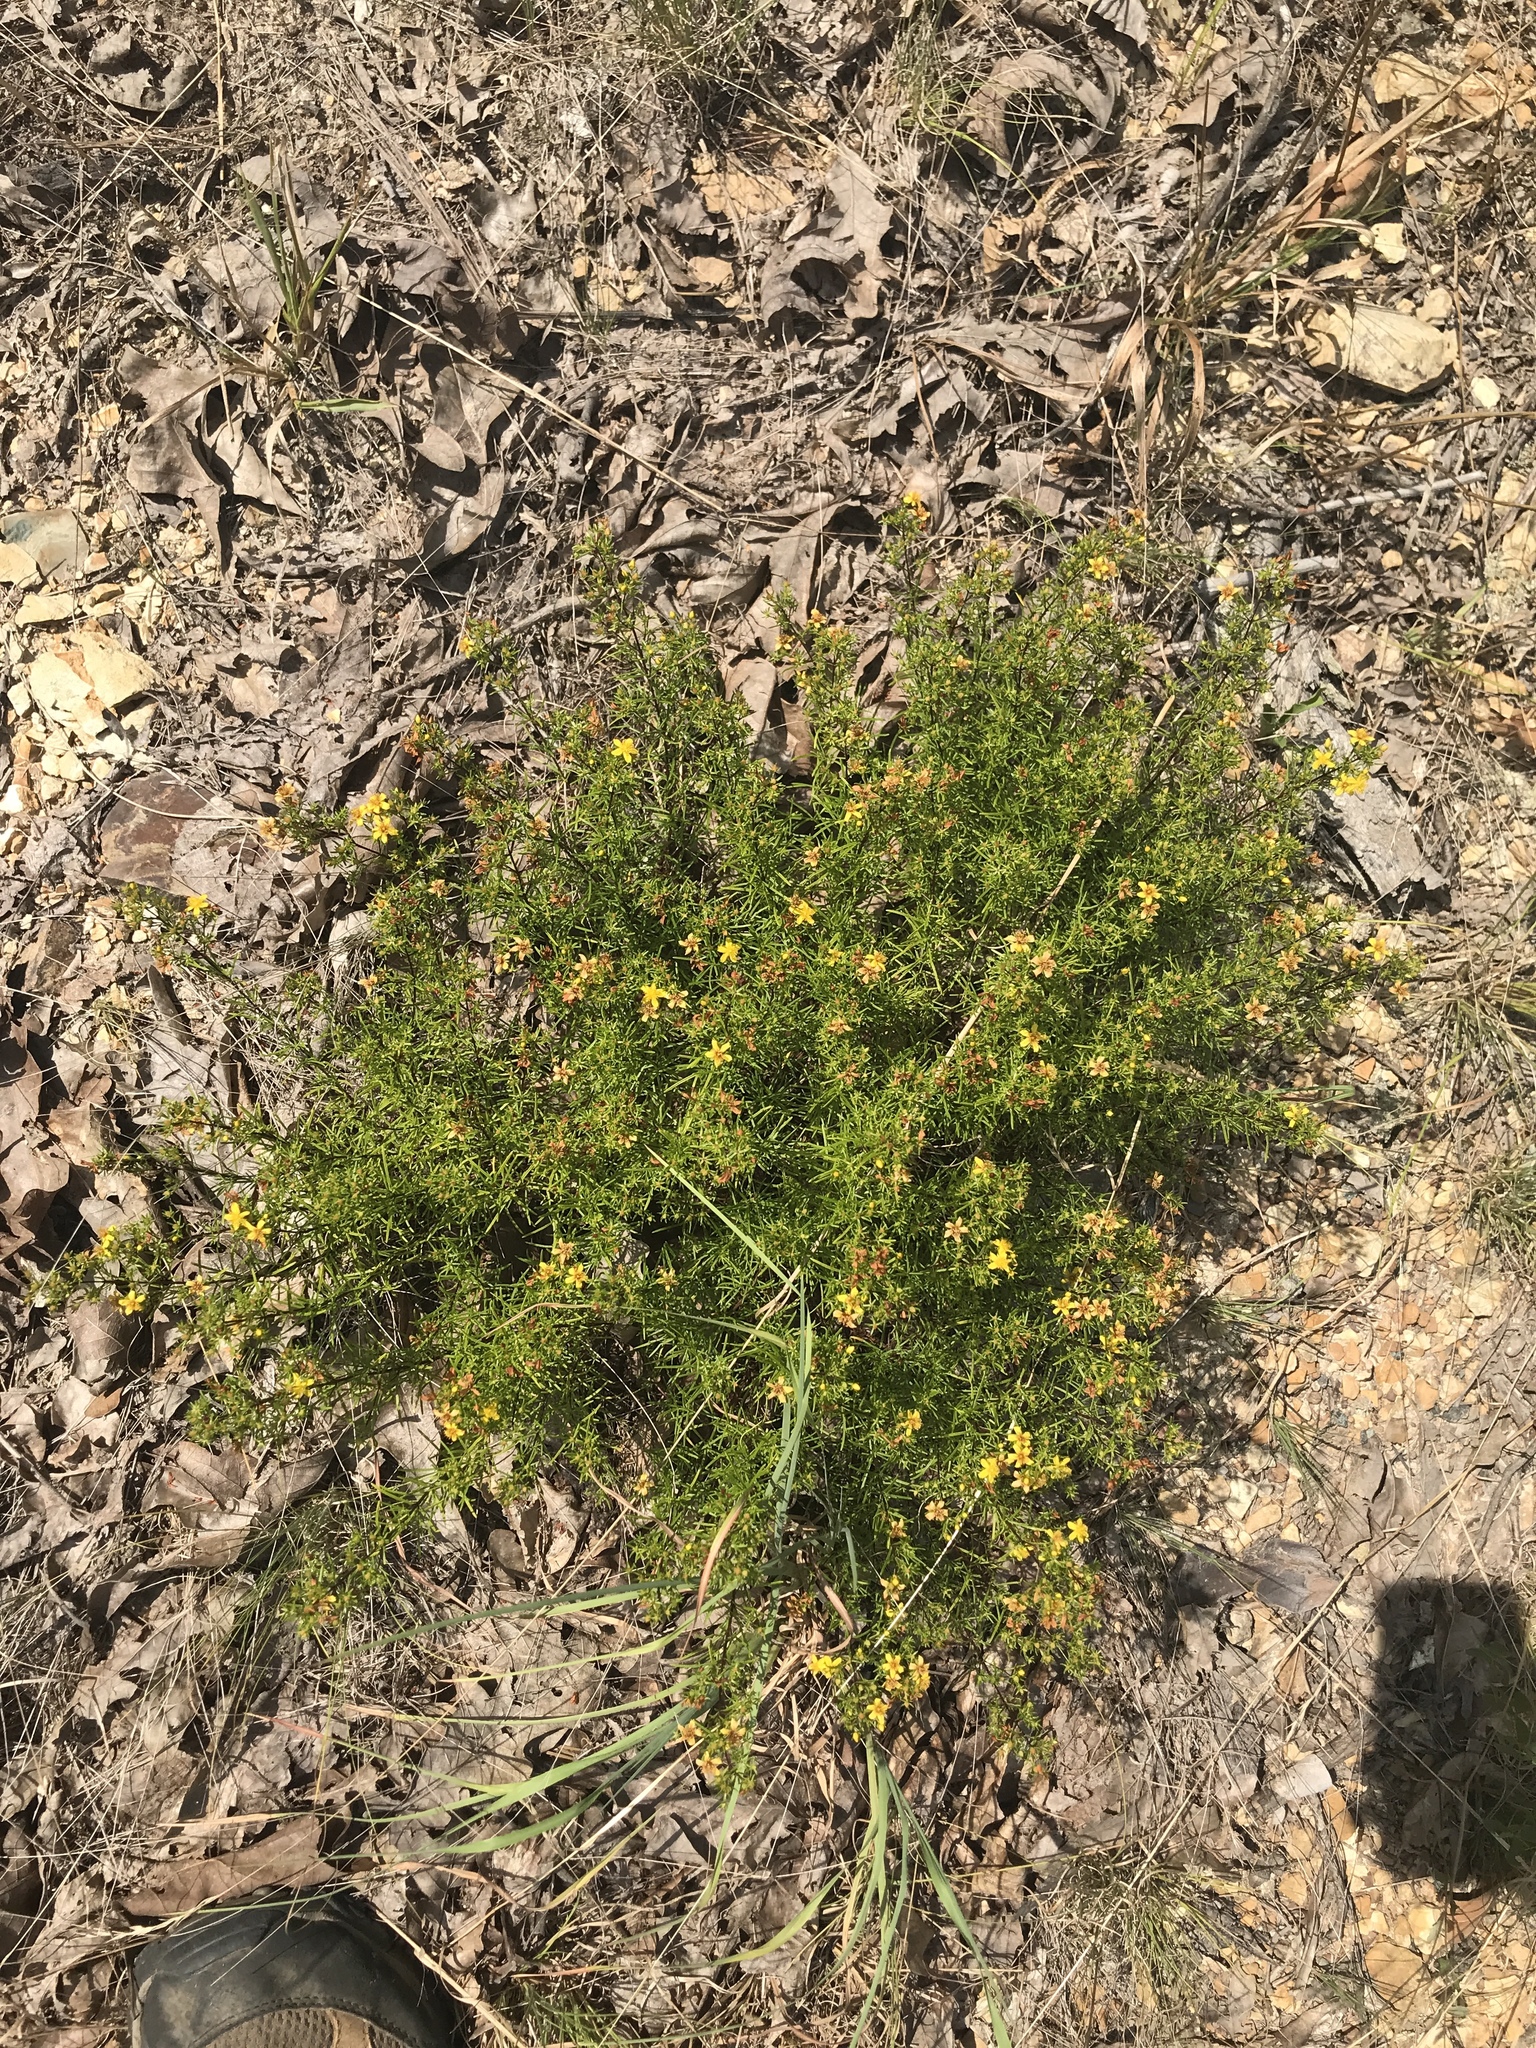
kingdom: Plantae
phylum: Tracheophyta
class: Magnoliopsida
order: Malpighiales
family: Hypericaceae
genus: Hypericum
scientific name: Hypericum lloydii
